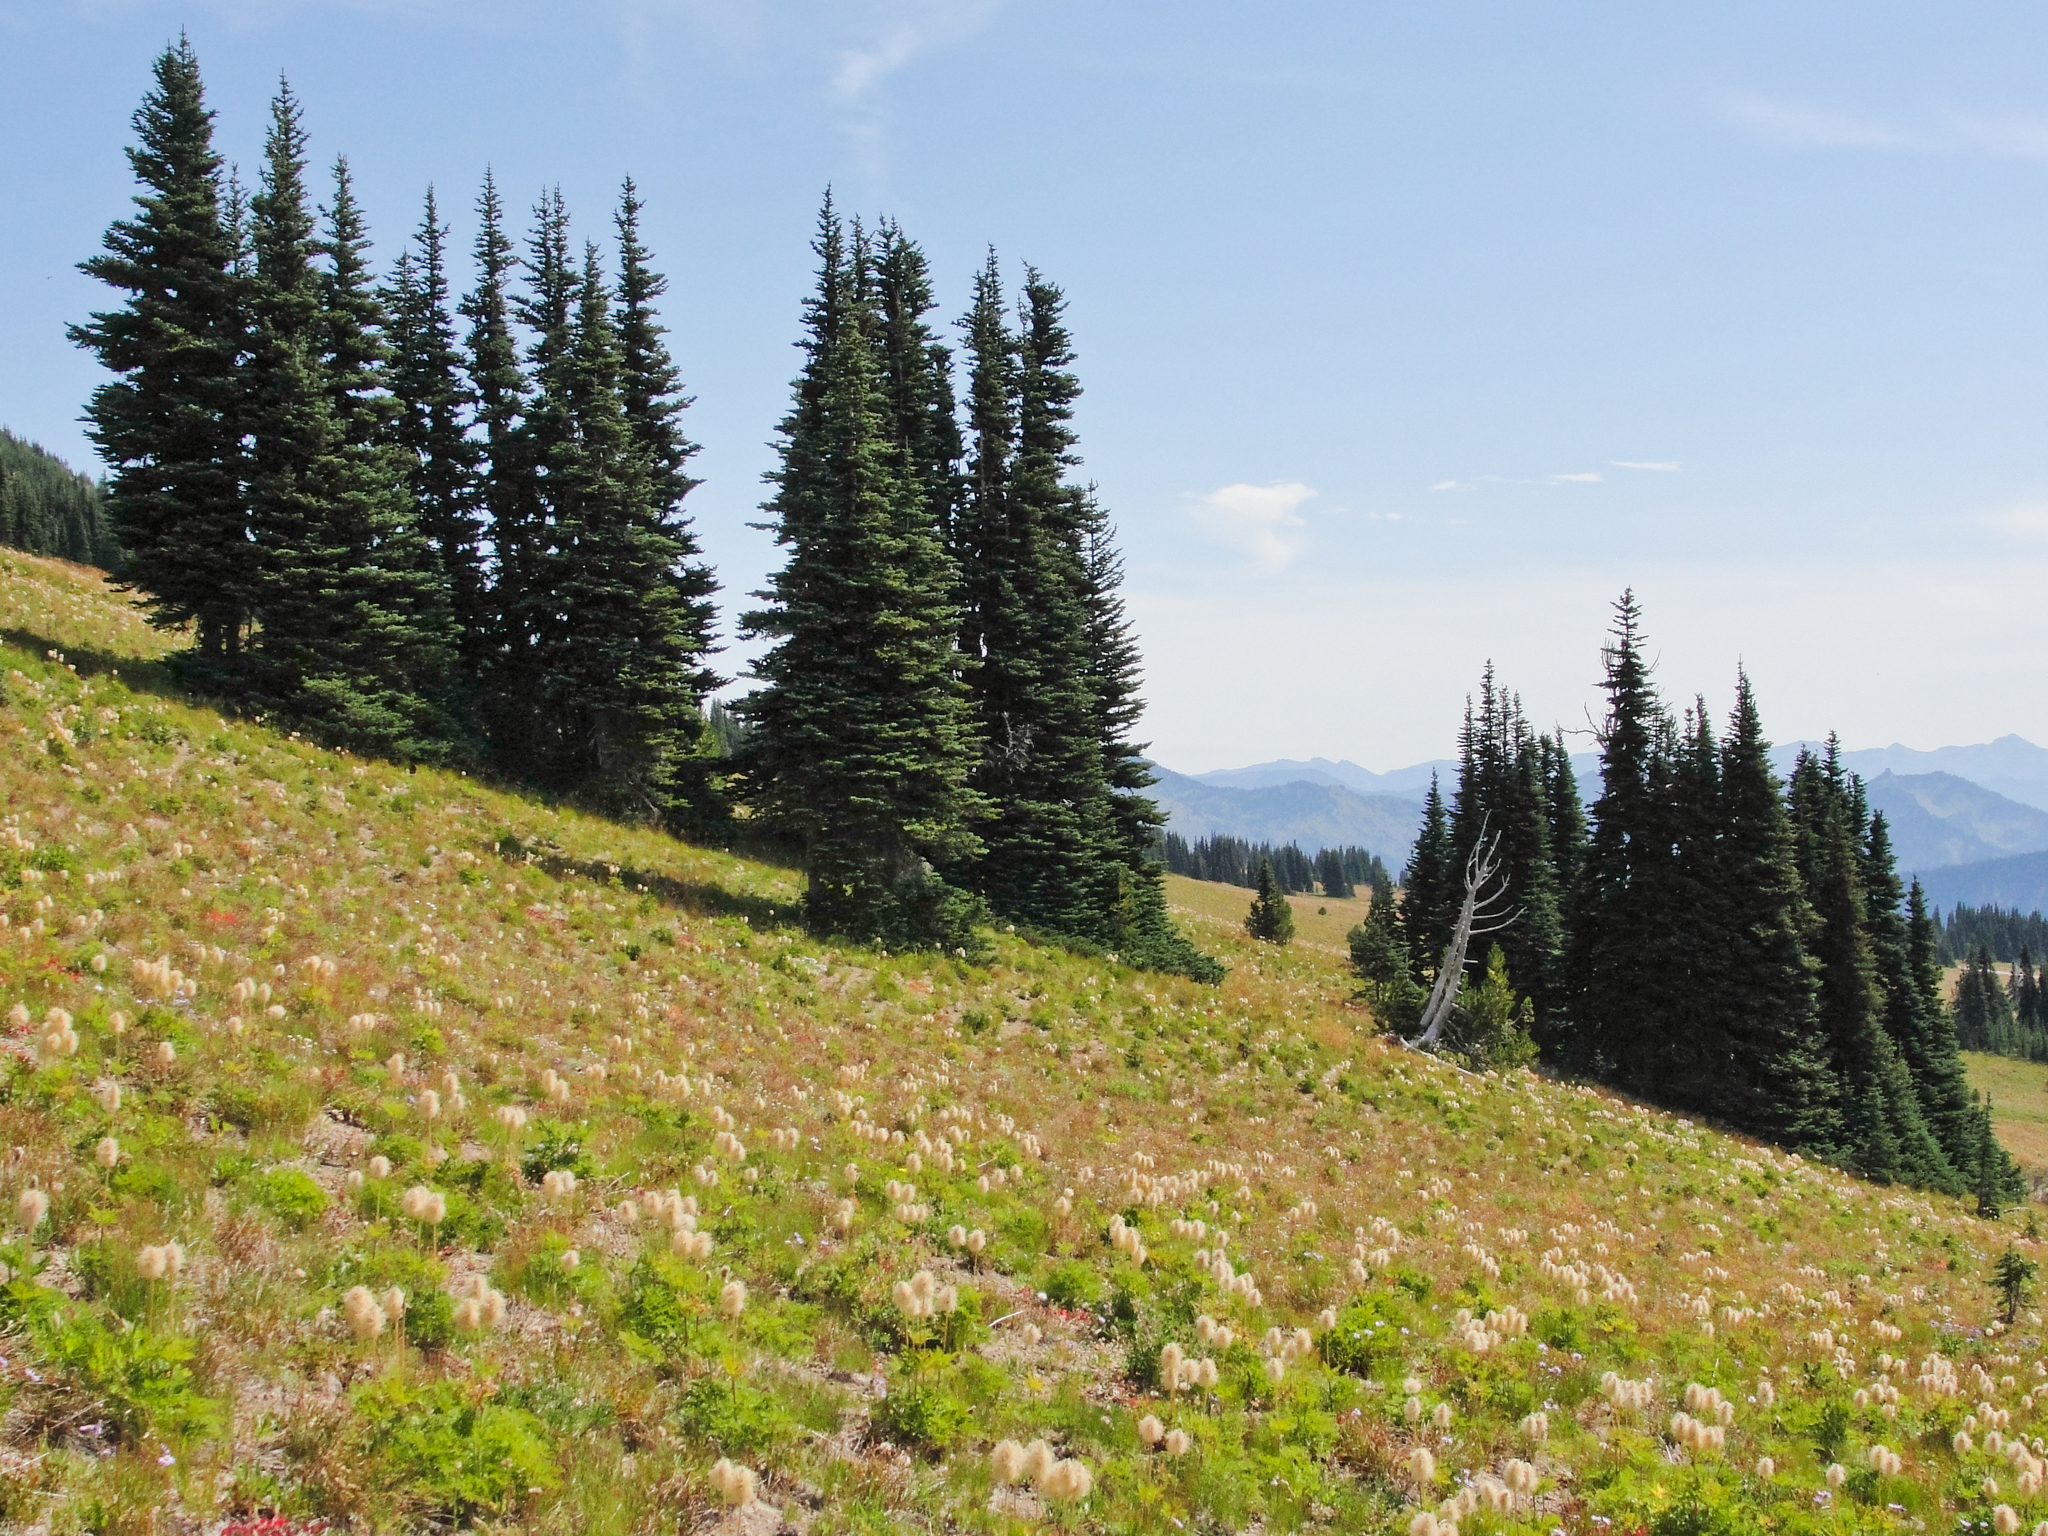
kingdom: Plantae
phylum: Tracheophyta
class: Pinopsida
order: Pinales
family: Pinaceae
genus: Abies
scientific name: Abies lasiocarpa
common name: Subalpine fir
